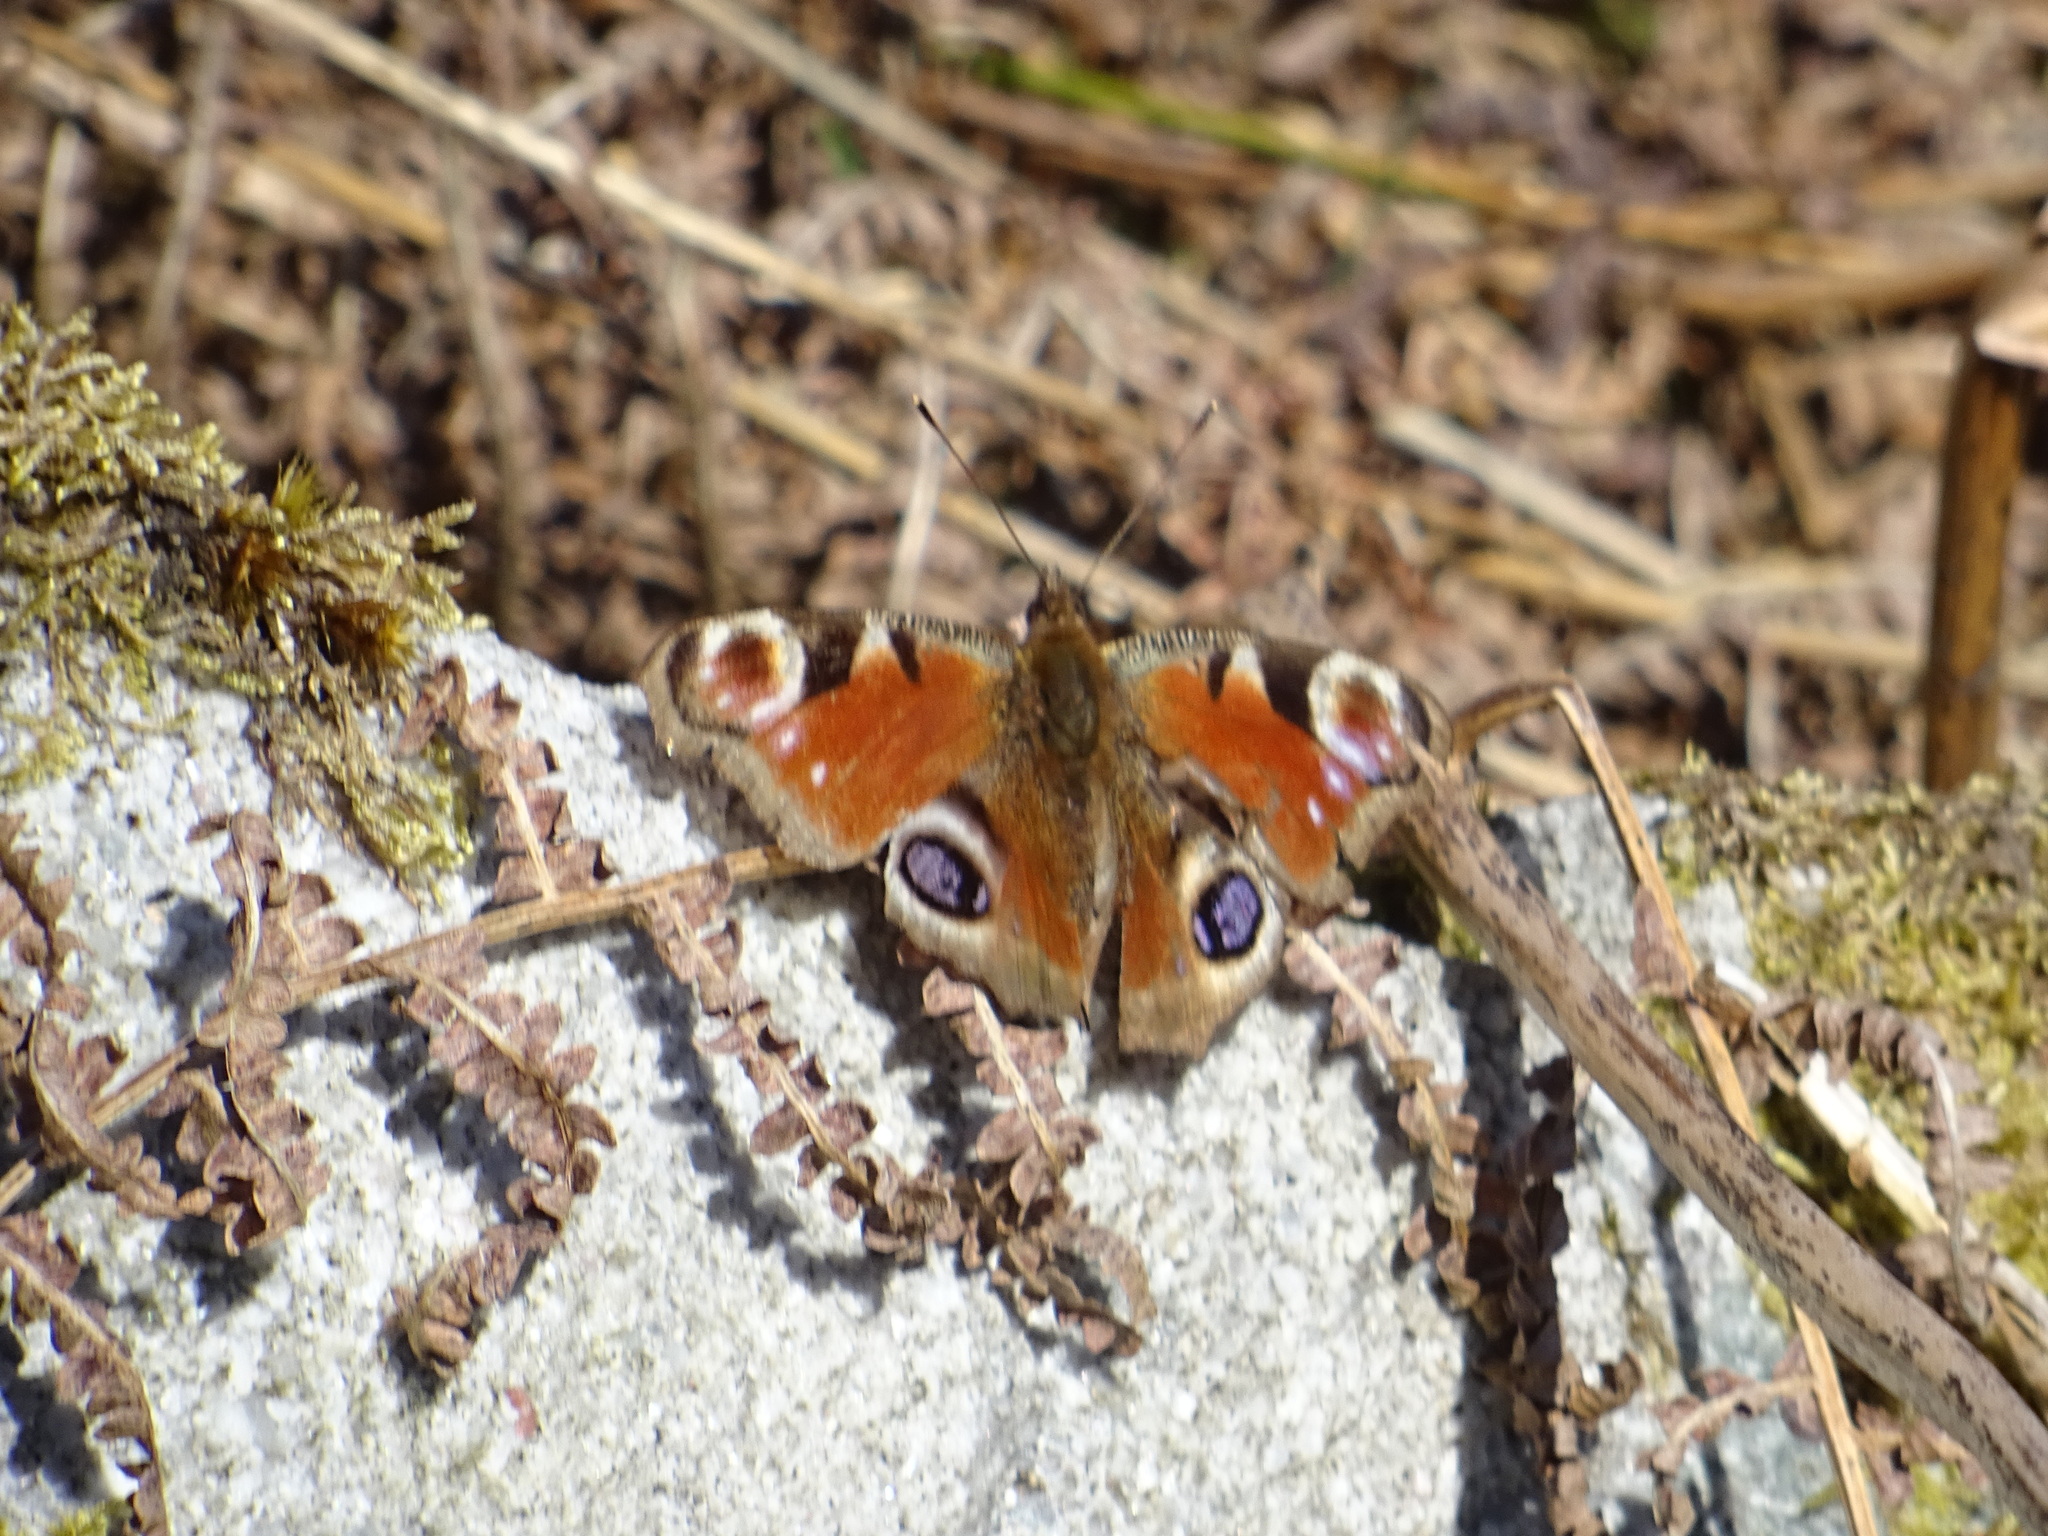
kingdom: Animalia
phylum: Arthropoda
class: Insecta
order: Lepidoptera
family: Nymphalidae
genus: Aglais
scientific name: Aglais io
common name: Peacock
